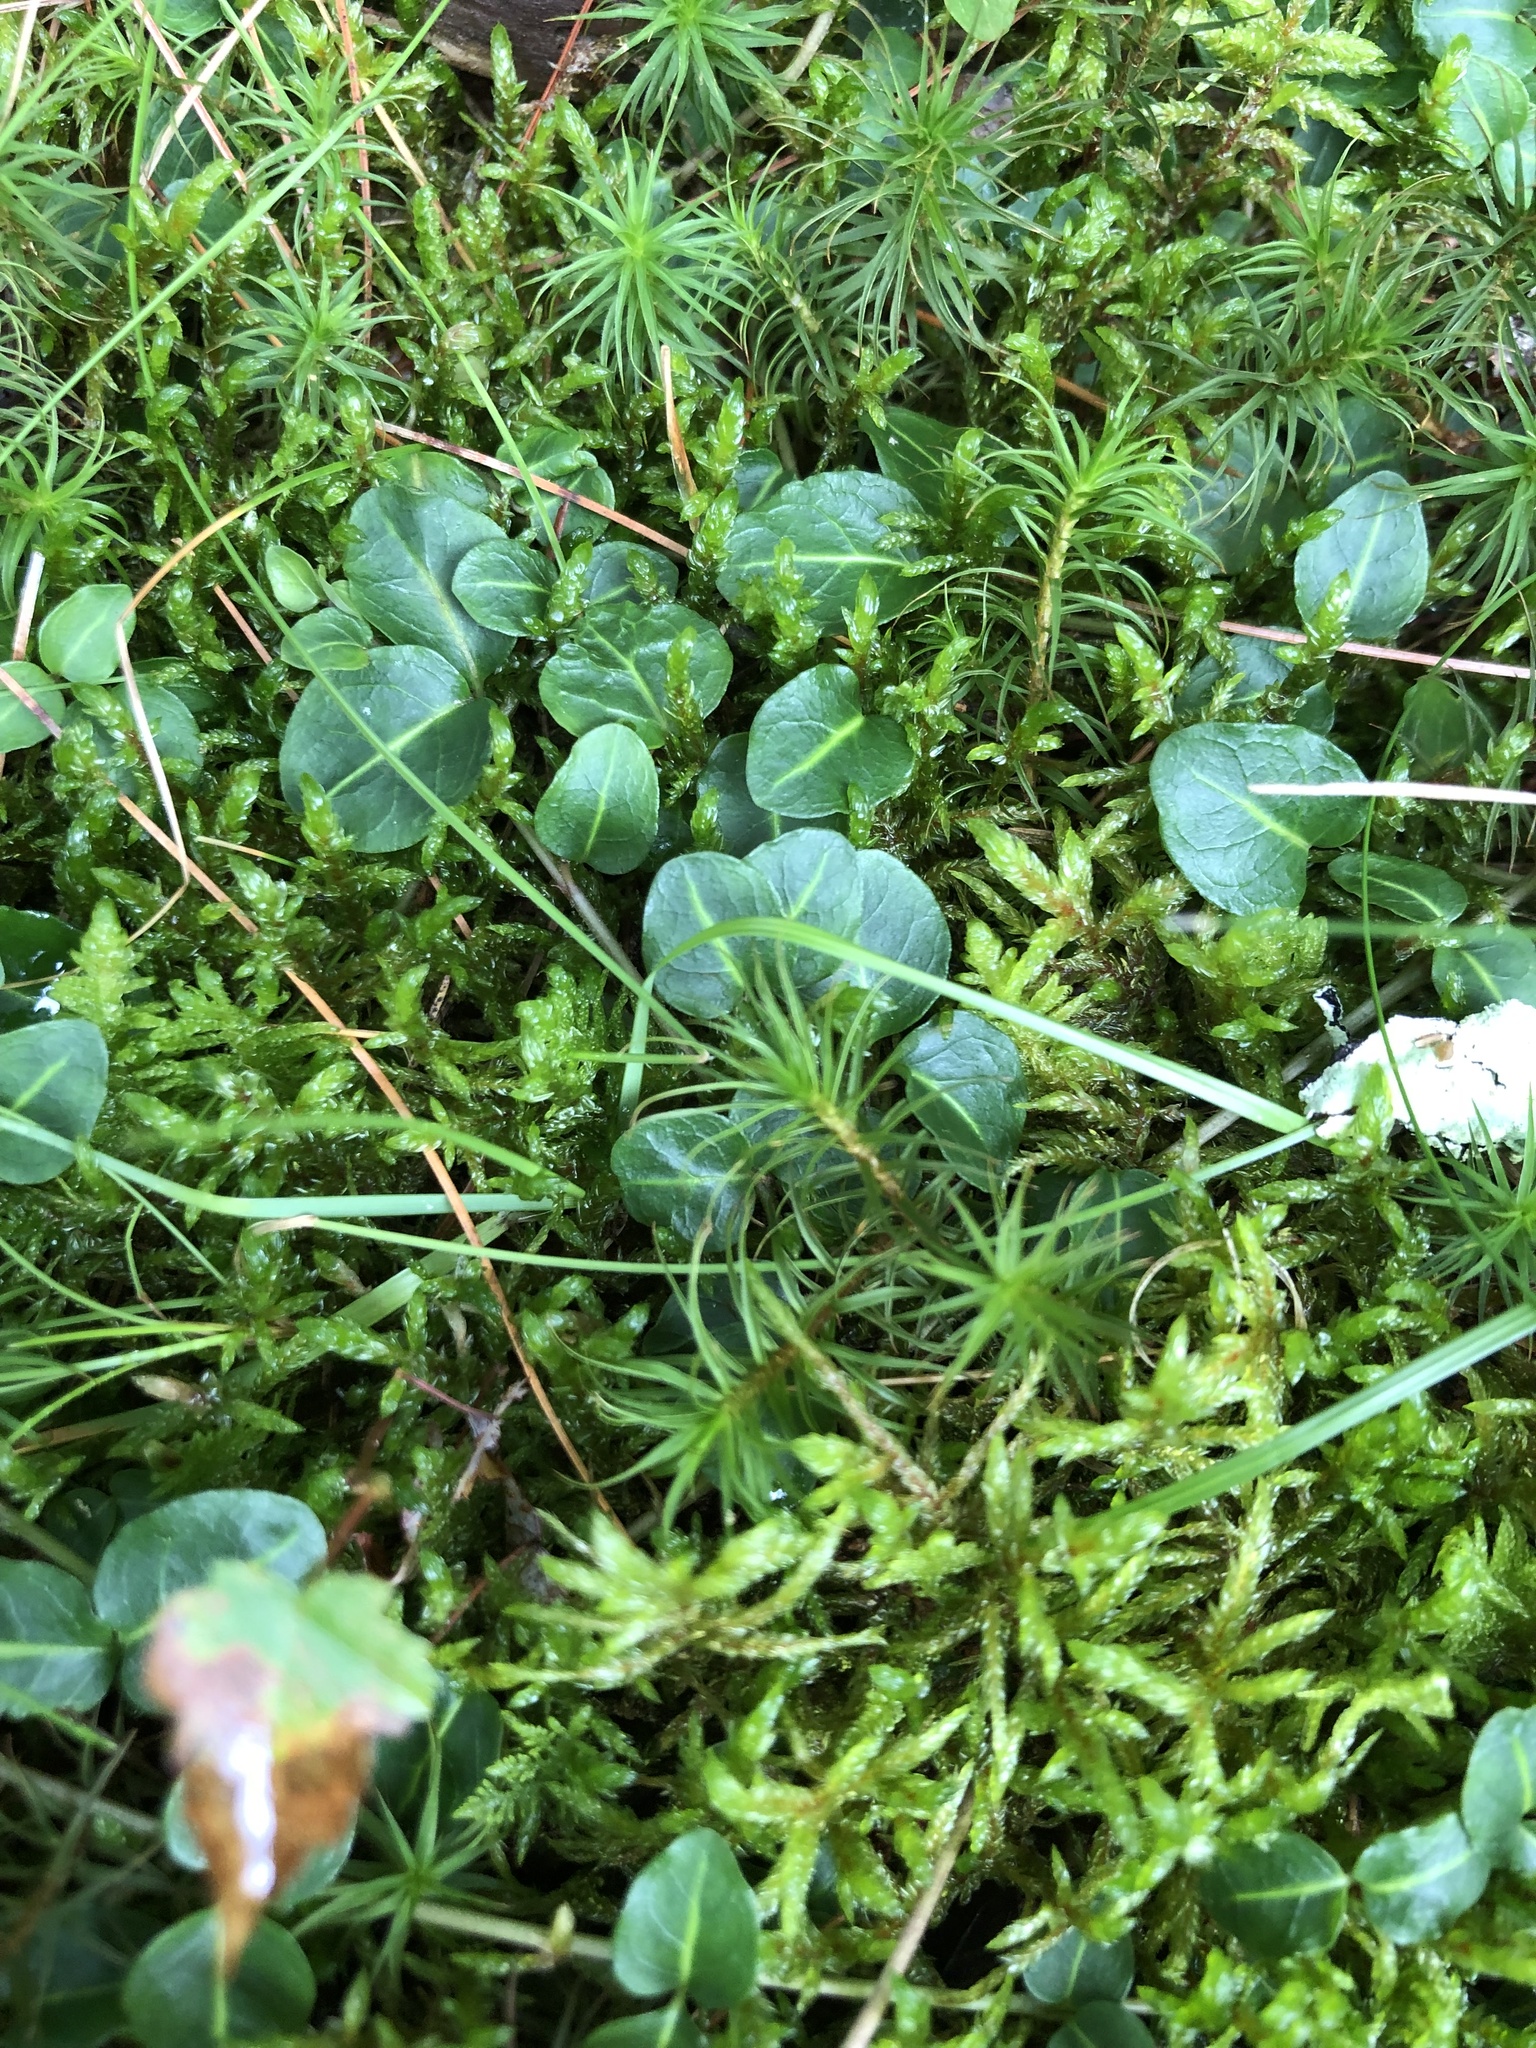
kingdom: Plantae
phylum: Tracheophyta
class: Magnoliopsida
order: Gentianales
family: Rubiaceae
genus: Mitchella
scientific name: Mitchella repens
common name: Partridge-berry
